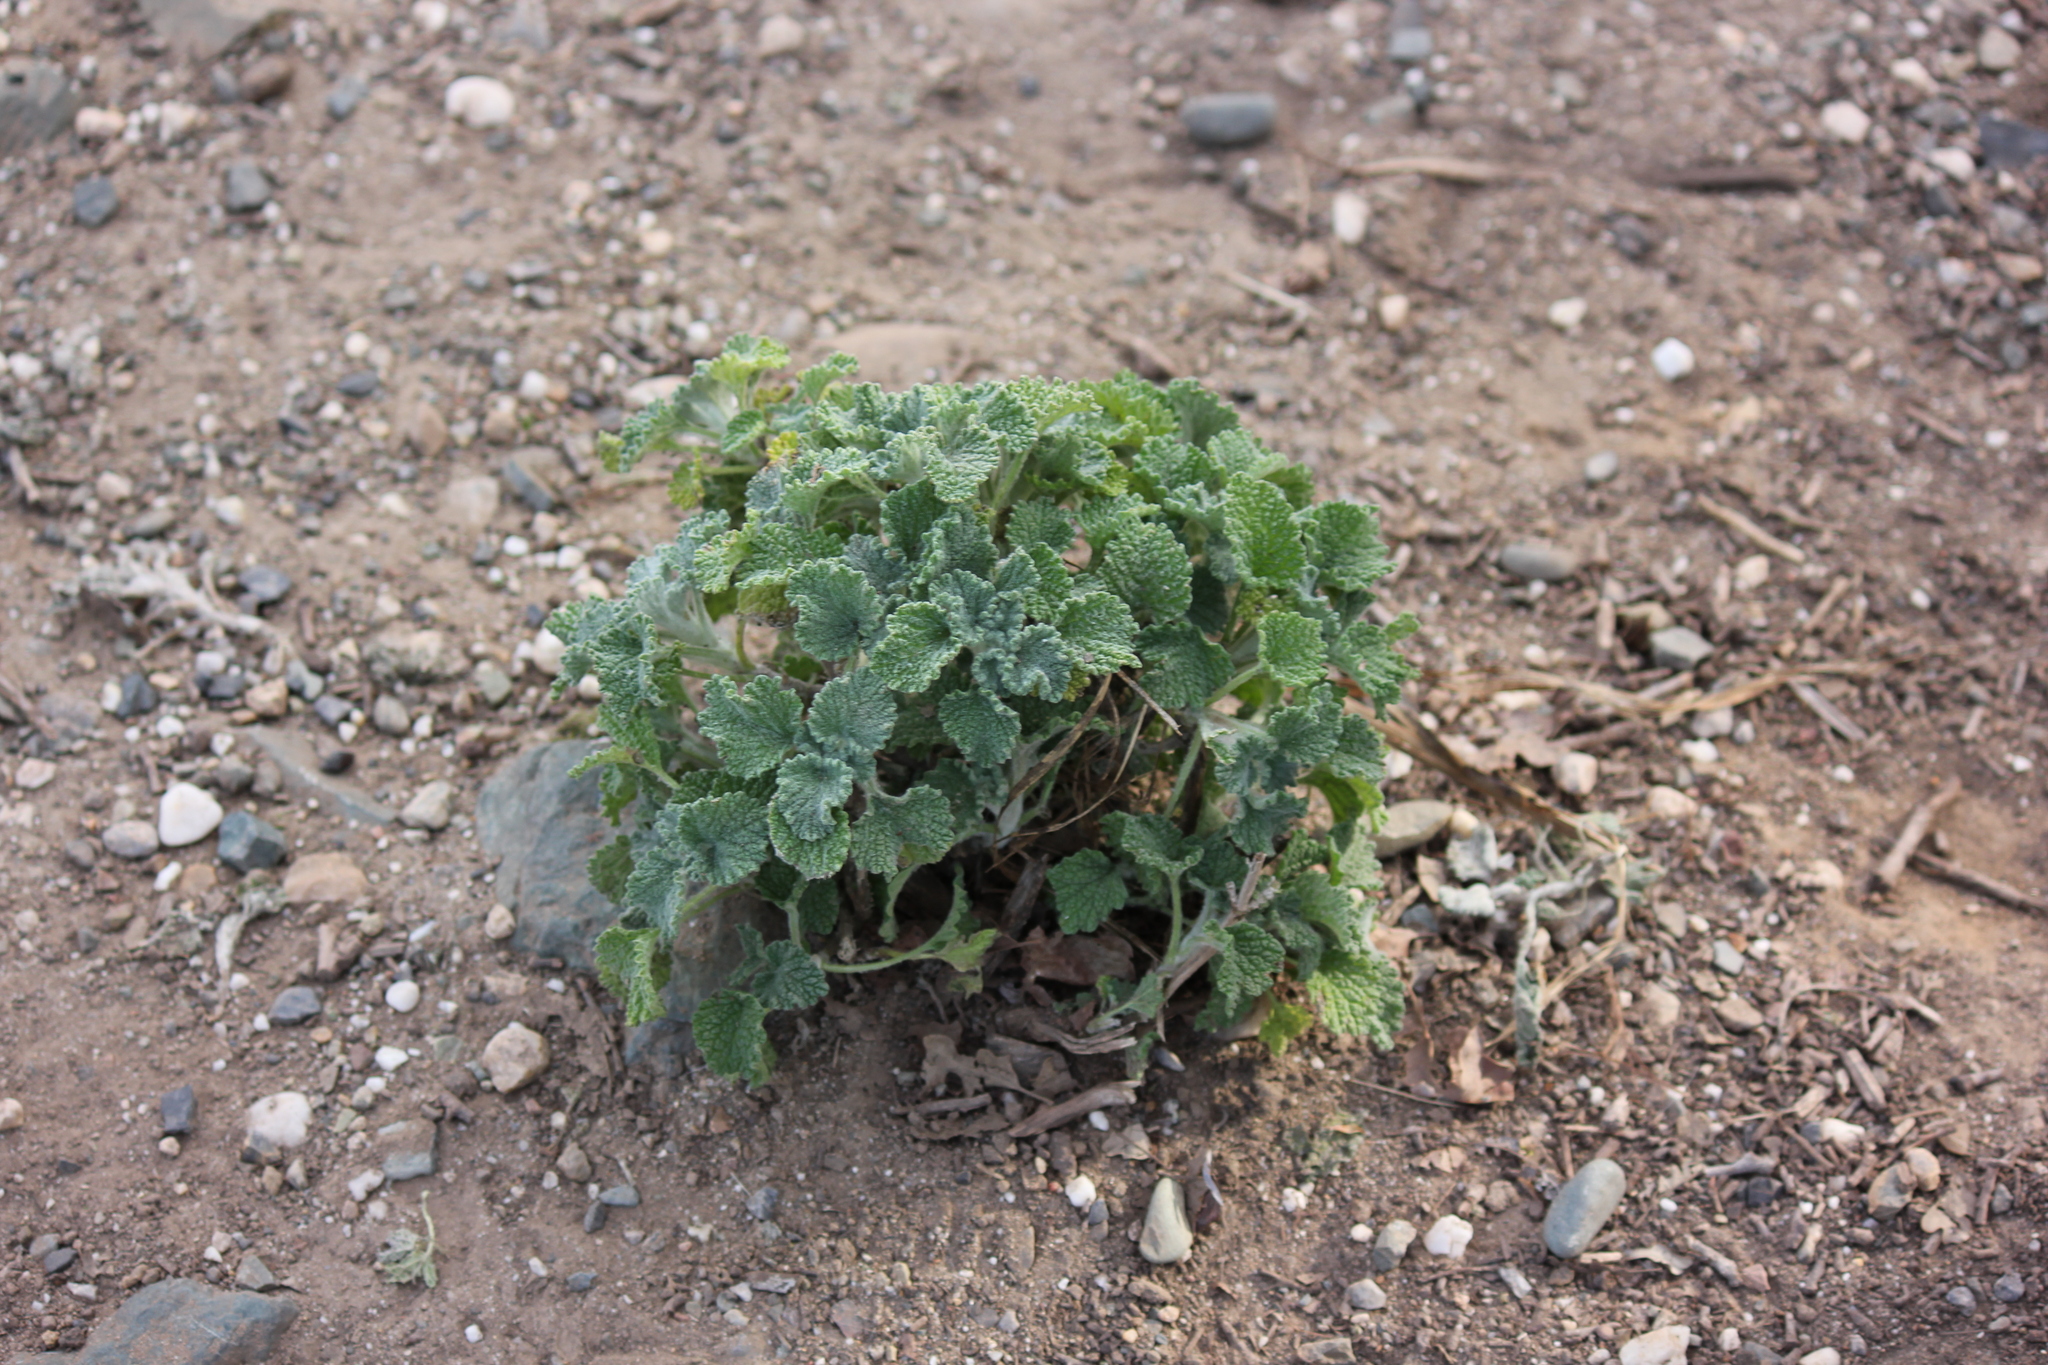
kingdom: Plantae
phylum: Tracheophyta
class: Magnoliopsida
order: Lamiales
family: Lamiaceae
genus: Marrubium
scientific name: Marrubium vulgare
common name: Horehound
